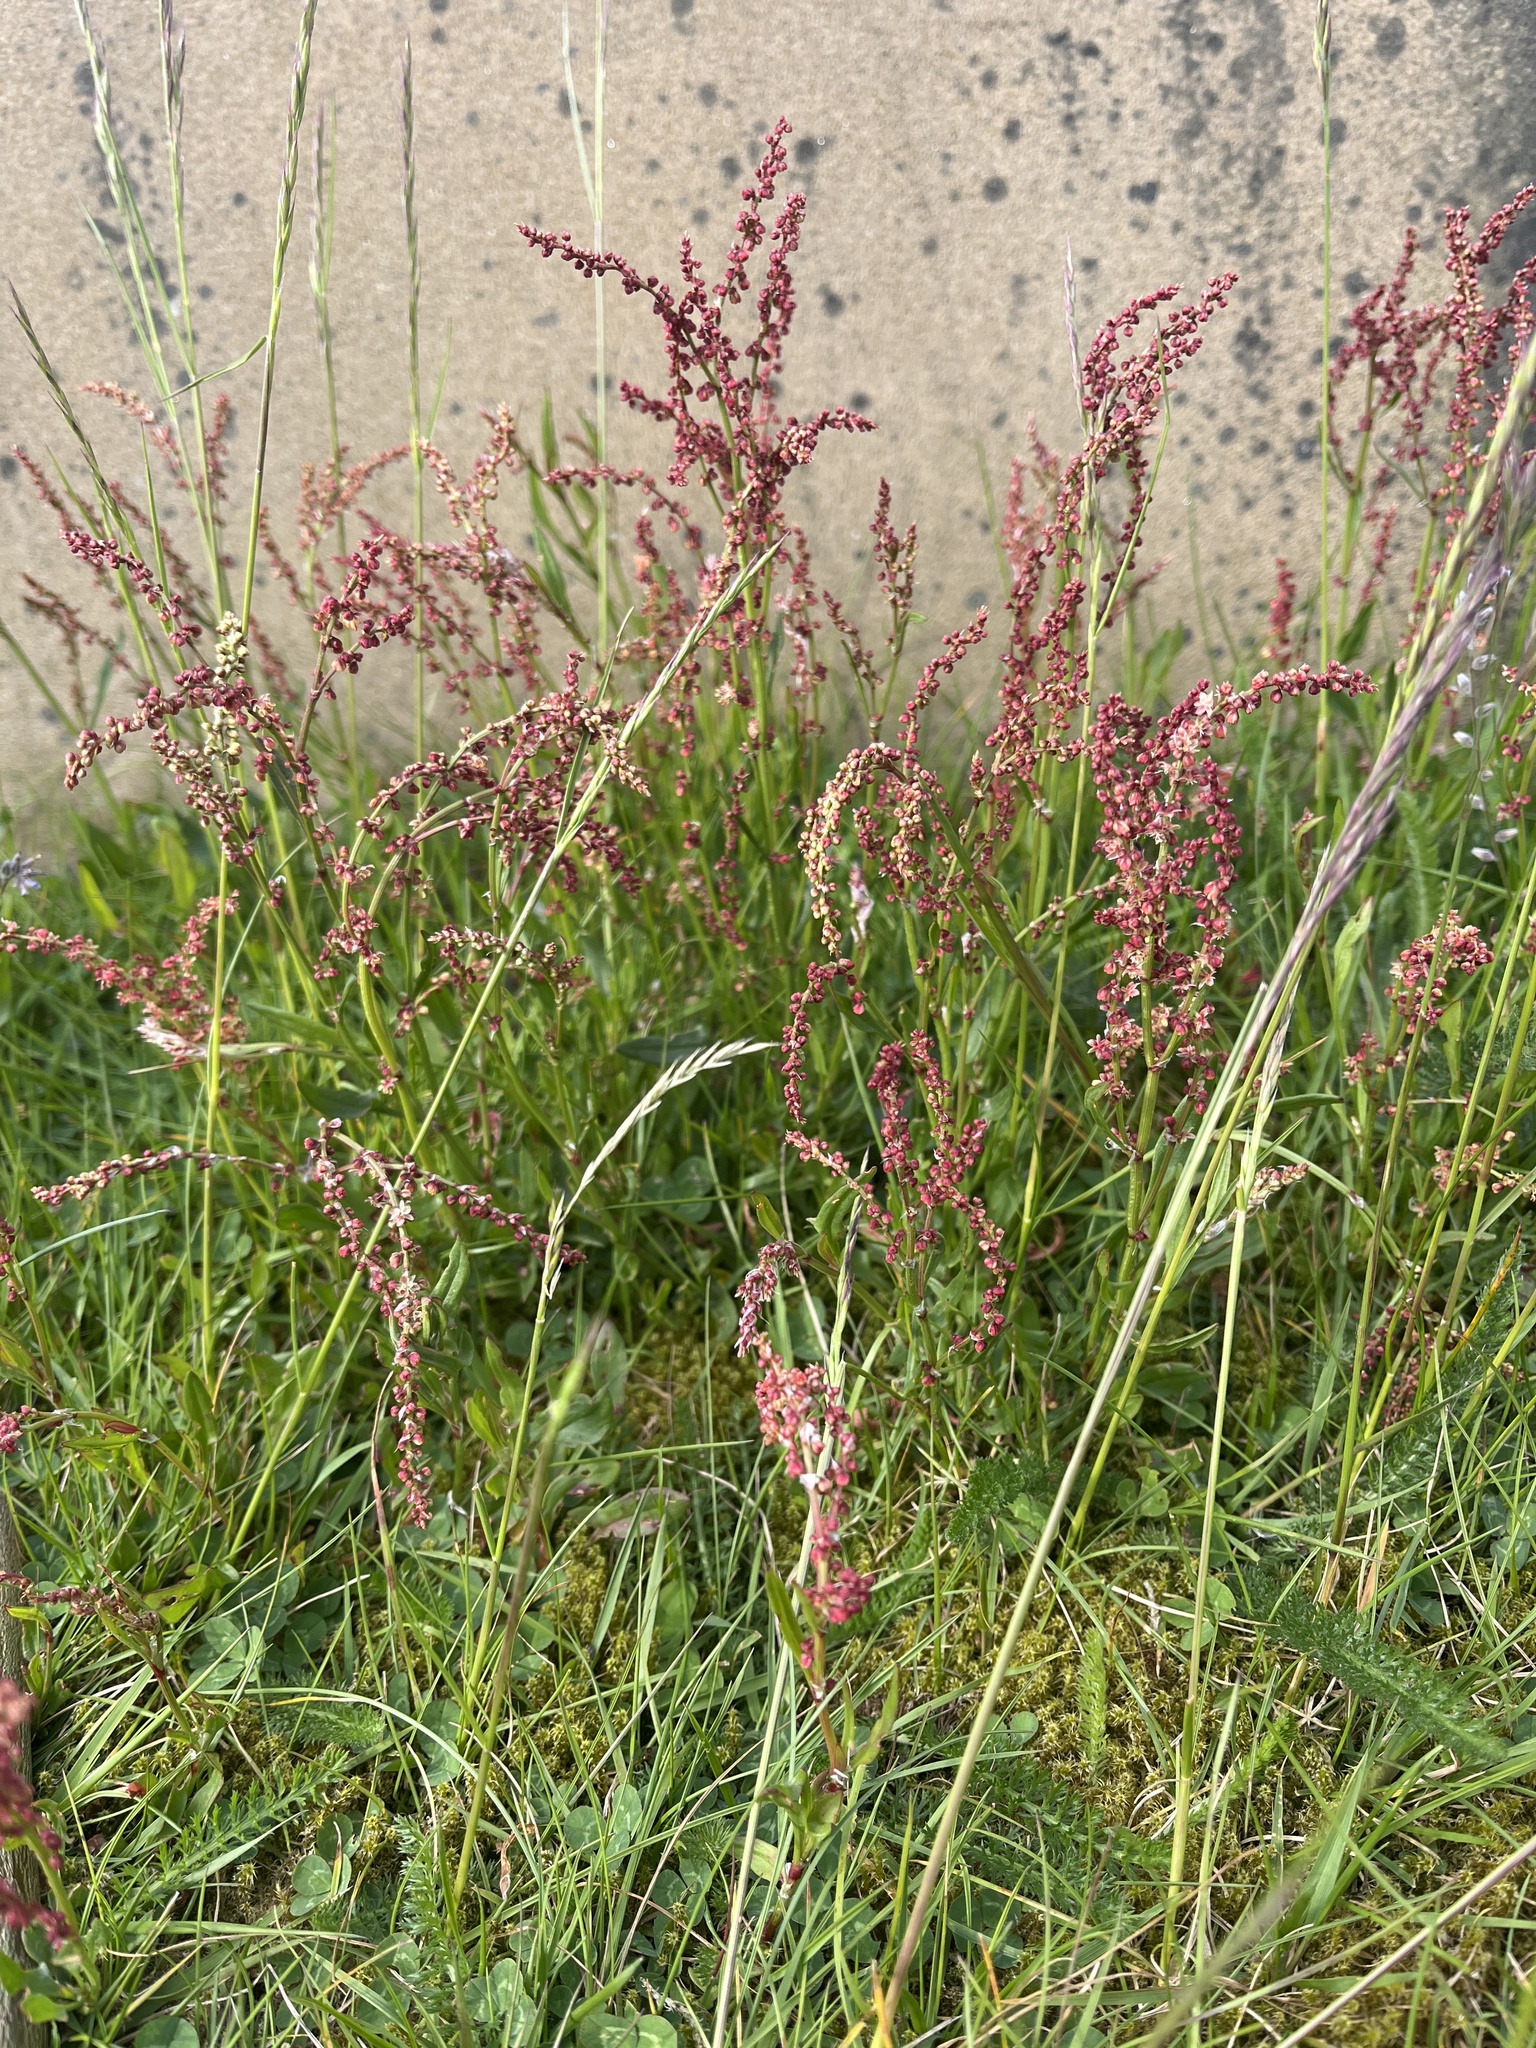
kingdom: Plantae
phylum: Tracheophyta
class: Magnoliopsida
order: Caryophyllales
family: Polygonaceae
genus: Rumex
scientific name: Rumex acetosella
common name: Common sheep sorrel
